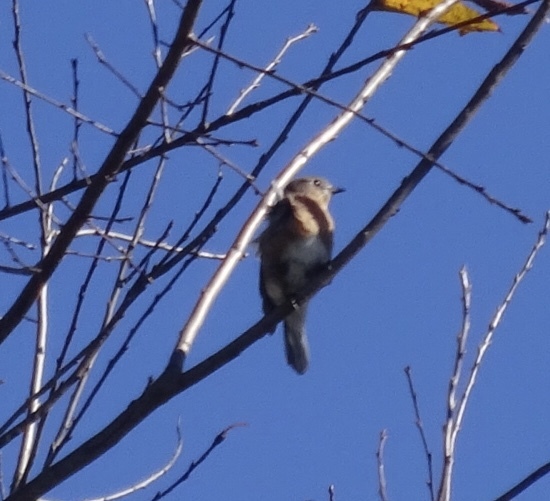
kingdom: Animalia
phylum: Chordata
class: Aves
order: Passeriformes
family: Turdidae
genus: Sialia
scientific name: Sialia sialis
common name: Eastern bluebird
